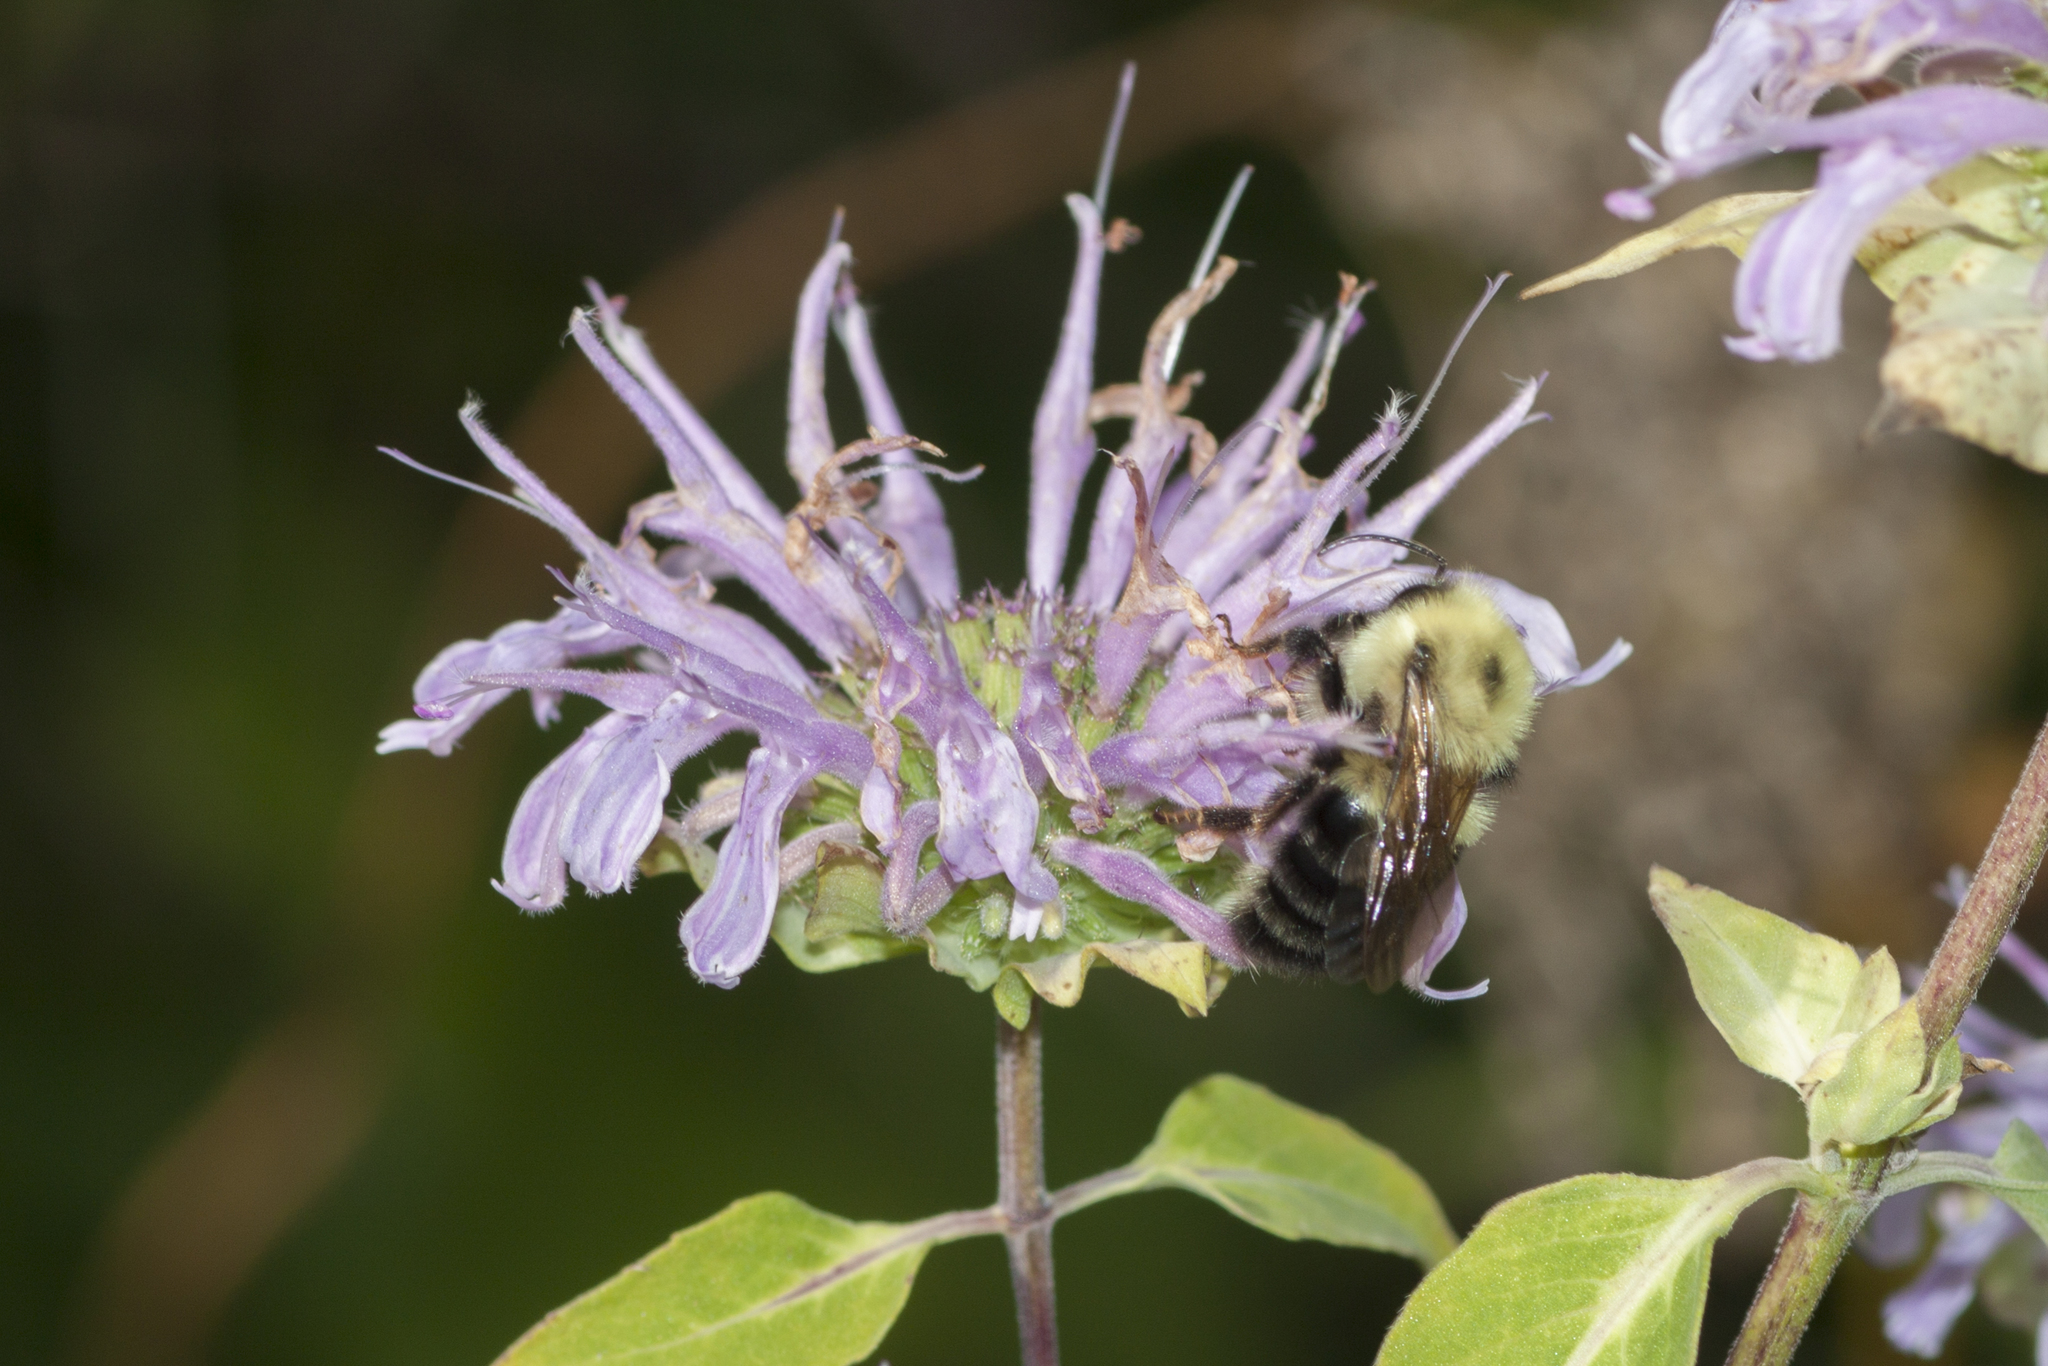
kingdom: Animalia
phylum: Arthropoda
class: Insecta
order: Hymenoptera
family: Apidae
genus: Bombus
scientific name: Bombus bimaculatus
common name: Two-spotted bumble bee
